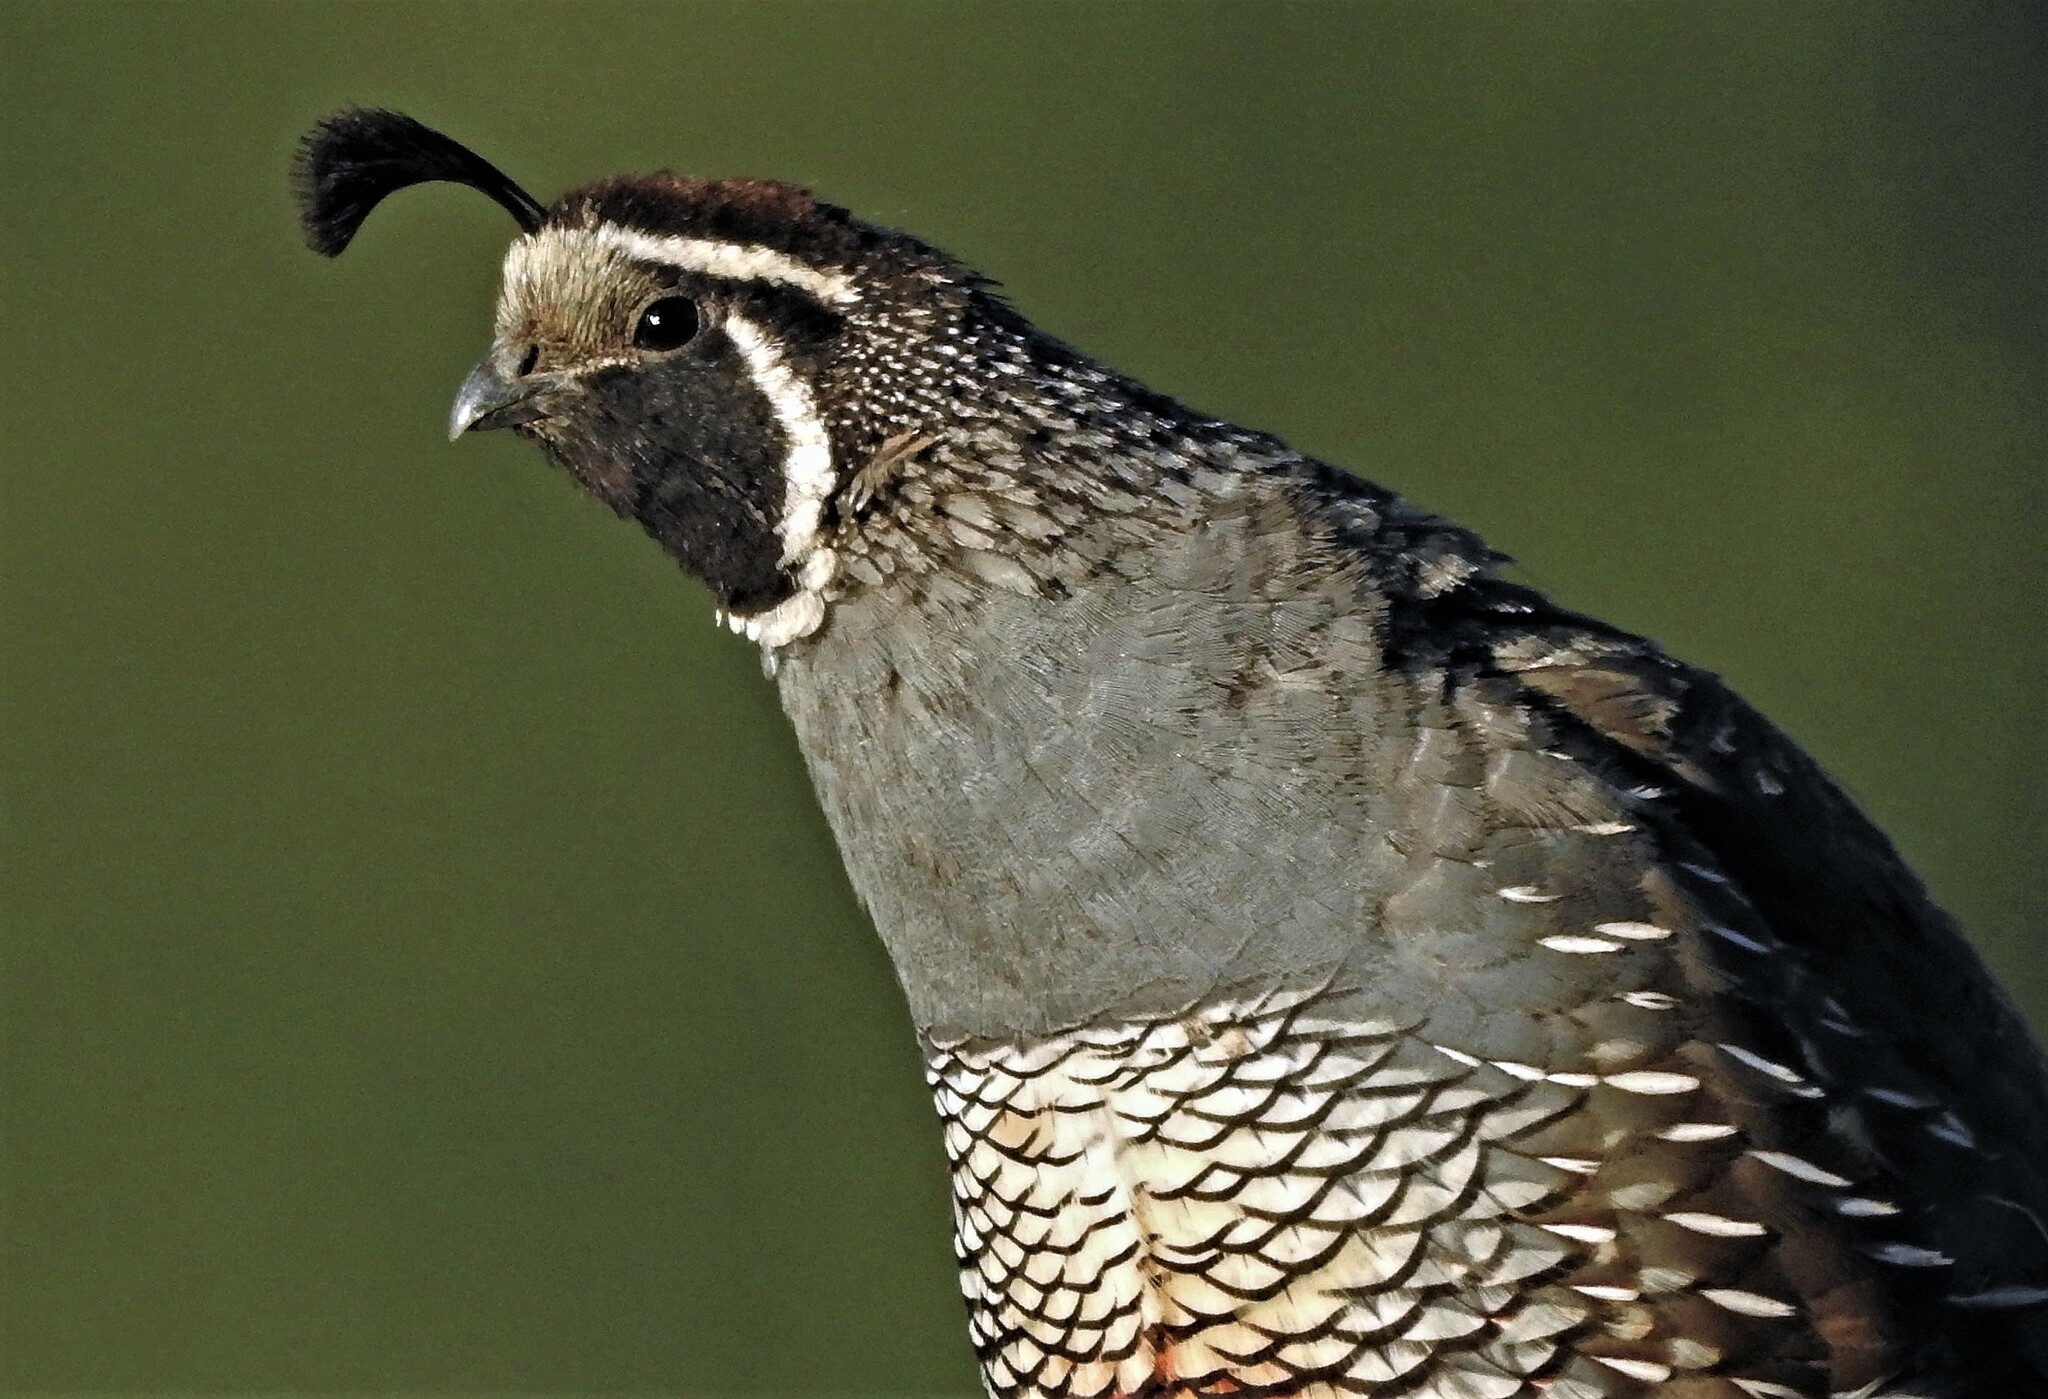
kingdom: Animalia
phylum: Chordata
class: Aves
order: Galliformes
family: Odontophoridae
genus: Callipepla
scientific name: Callipepla californica
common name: California quail
